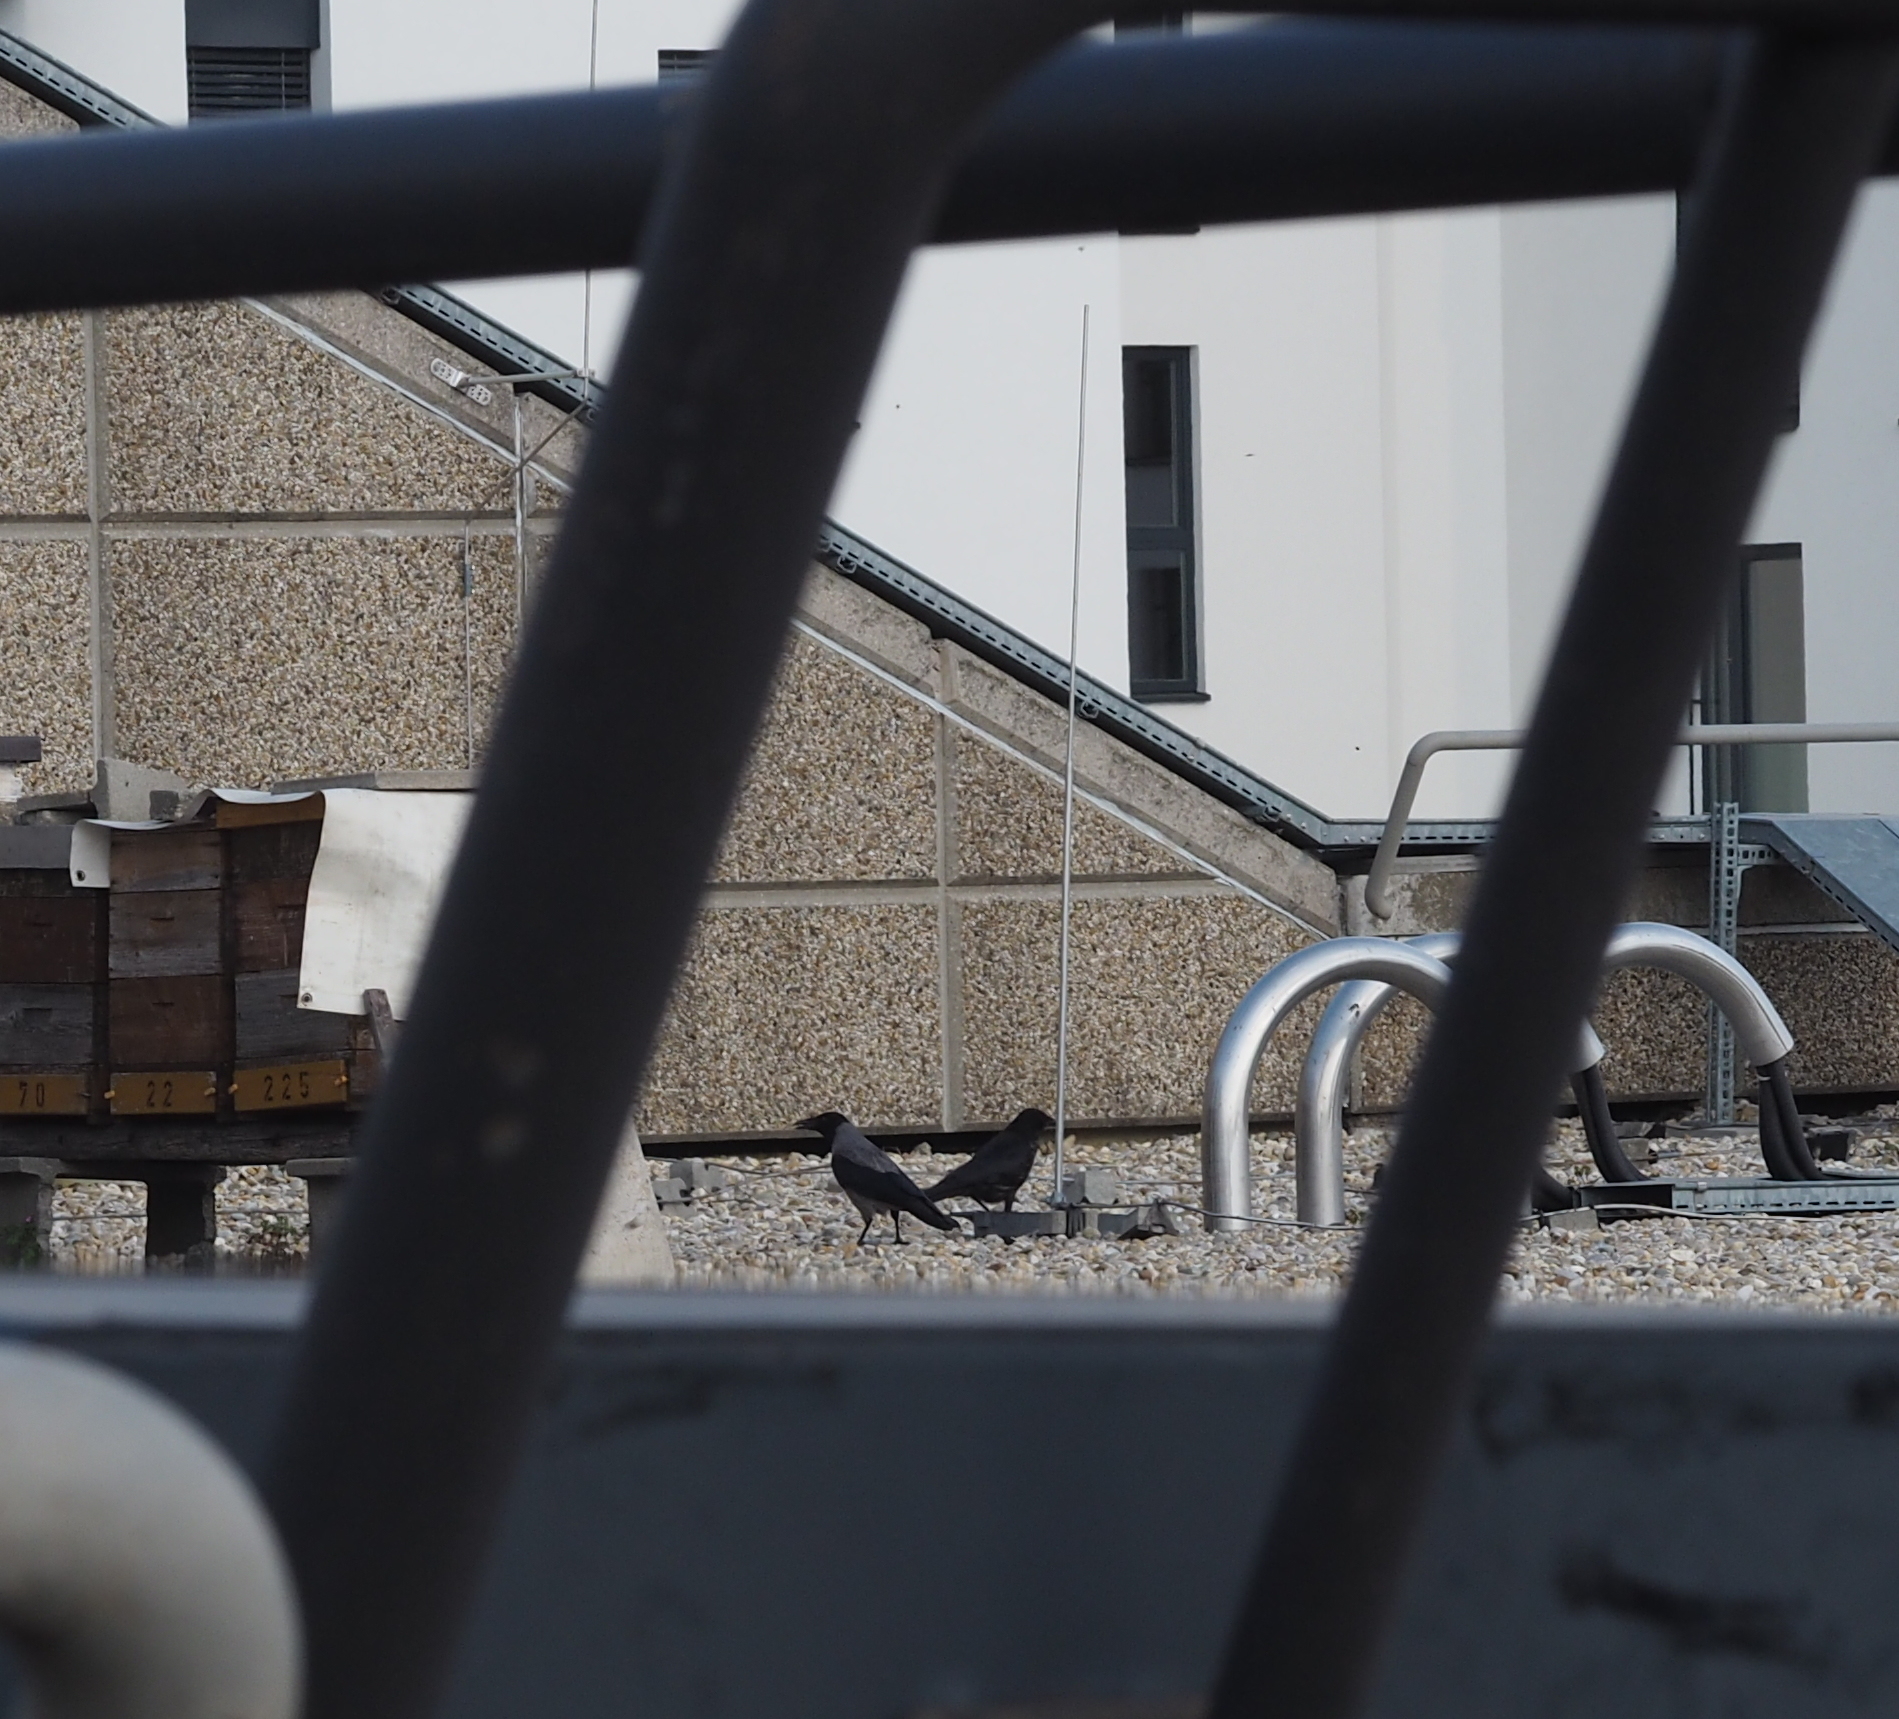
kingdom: Animalia
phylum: Chordata
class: Aves
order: Passeriformes
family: Corvidae
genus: Corvus
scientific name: Corvus cornix
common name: Hooded crow
